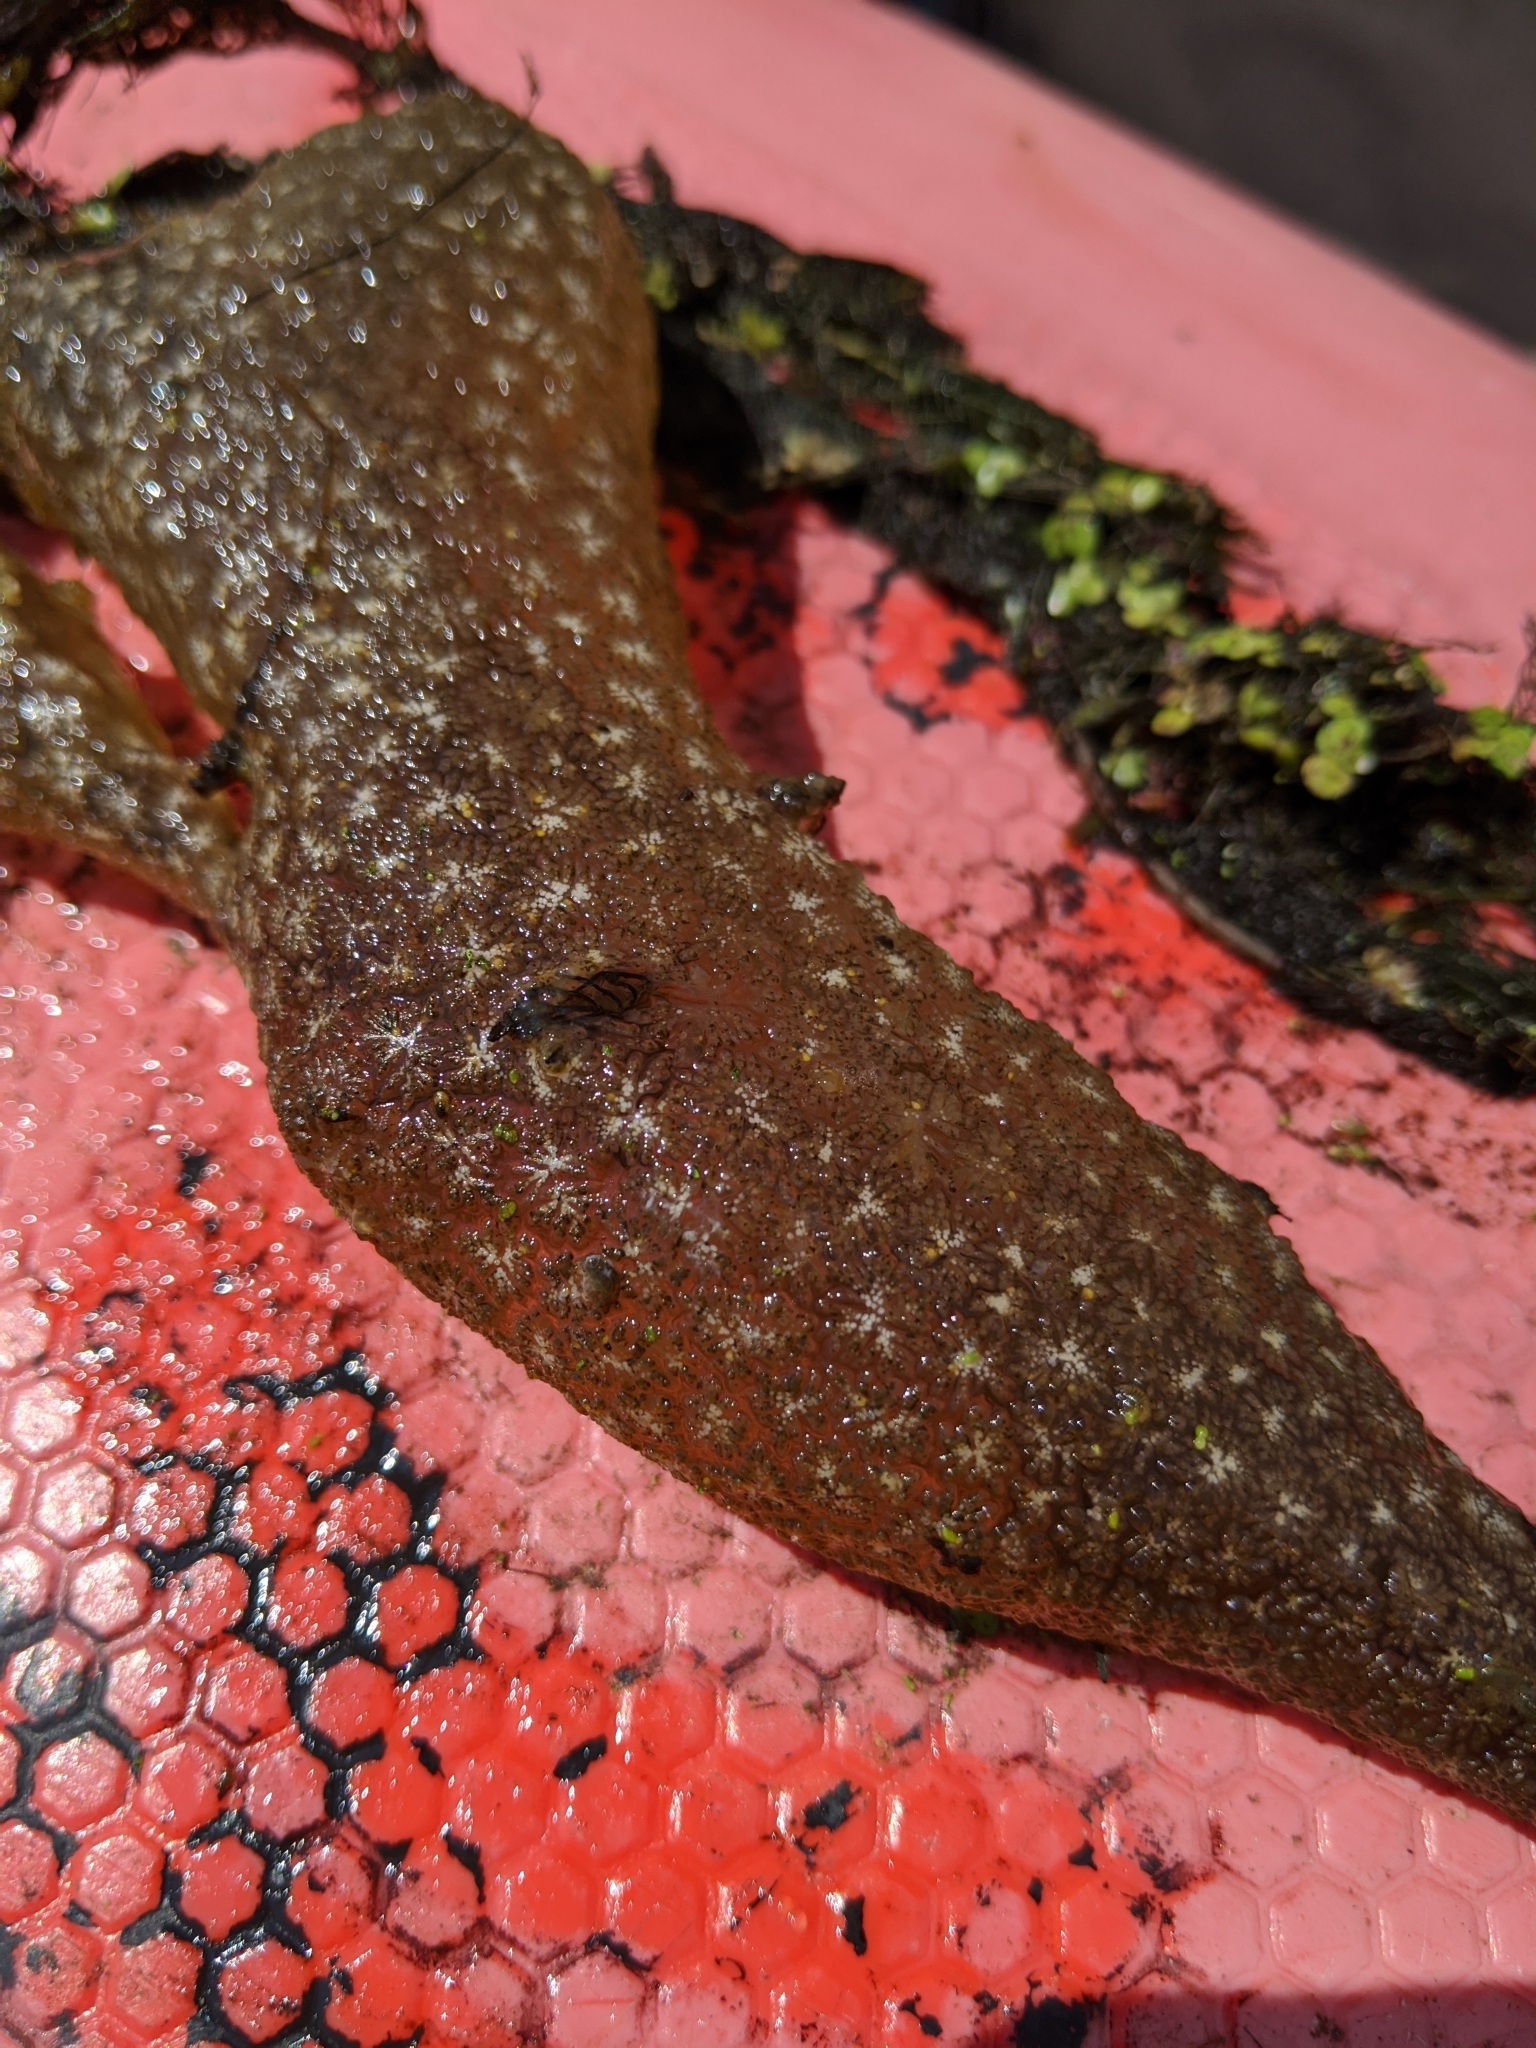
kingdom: Animalia
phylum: Bryozoa
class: Phylactolaemata
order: Plumatellida
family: Pectinatellidae
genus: Pectinatella
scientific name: Pectinatella magnifica
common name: Magnificent bryozoan
